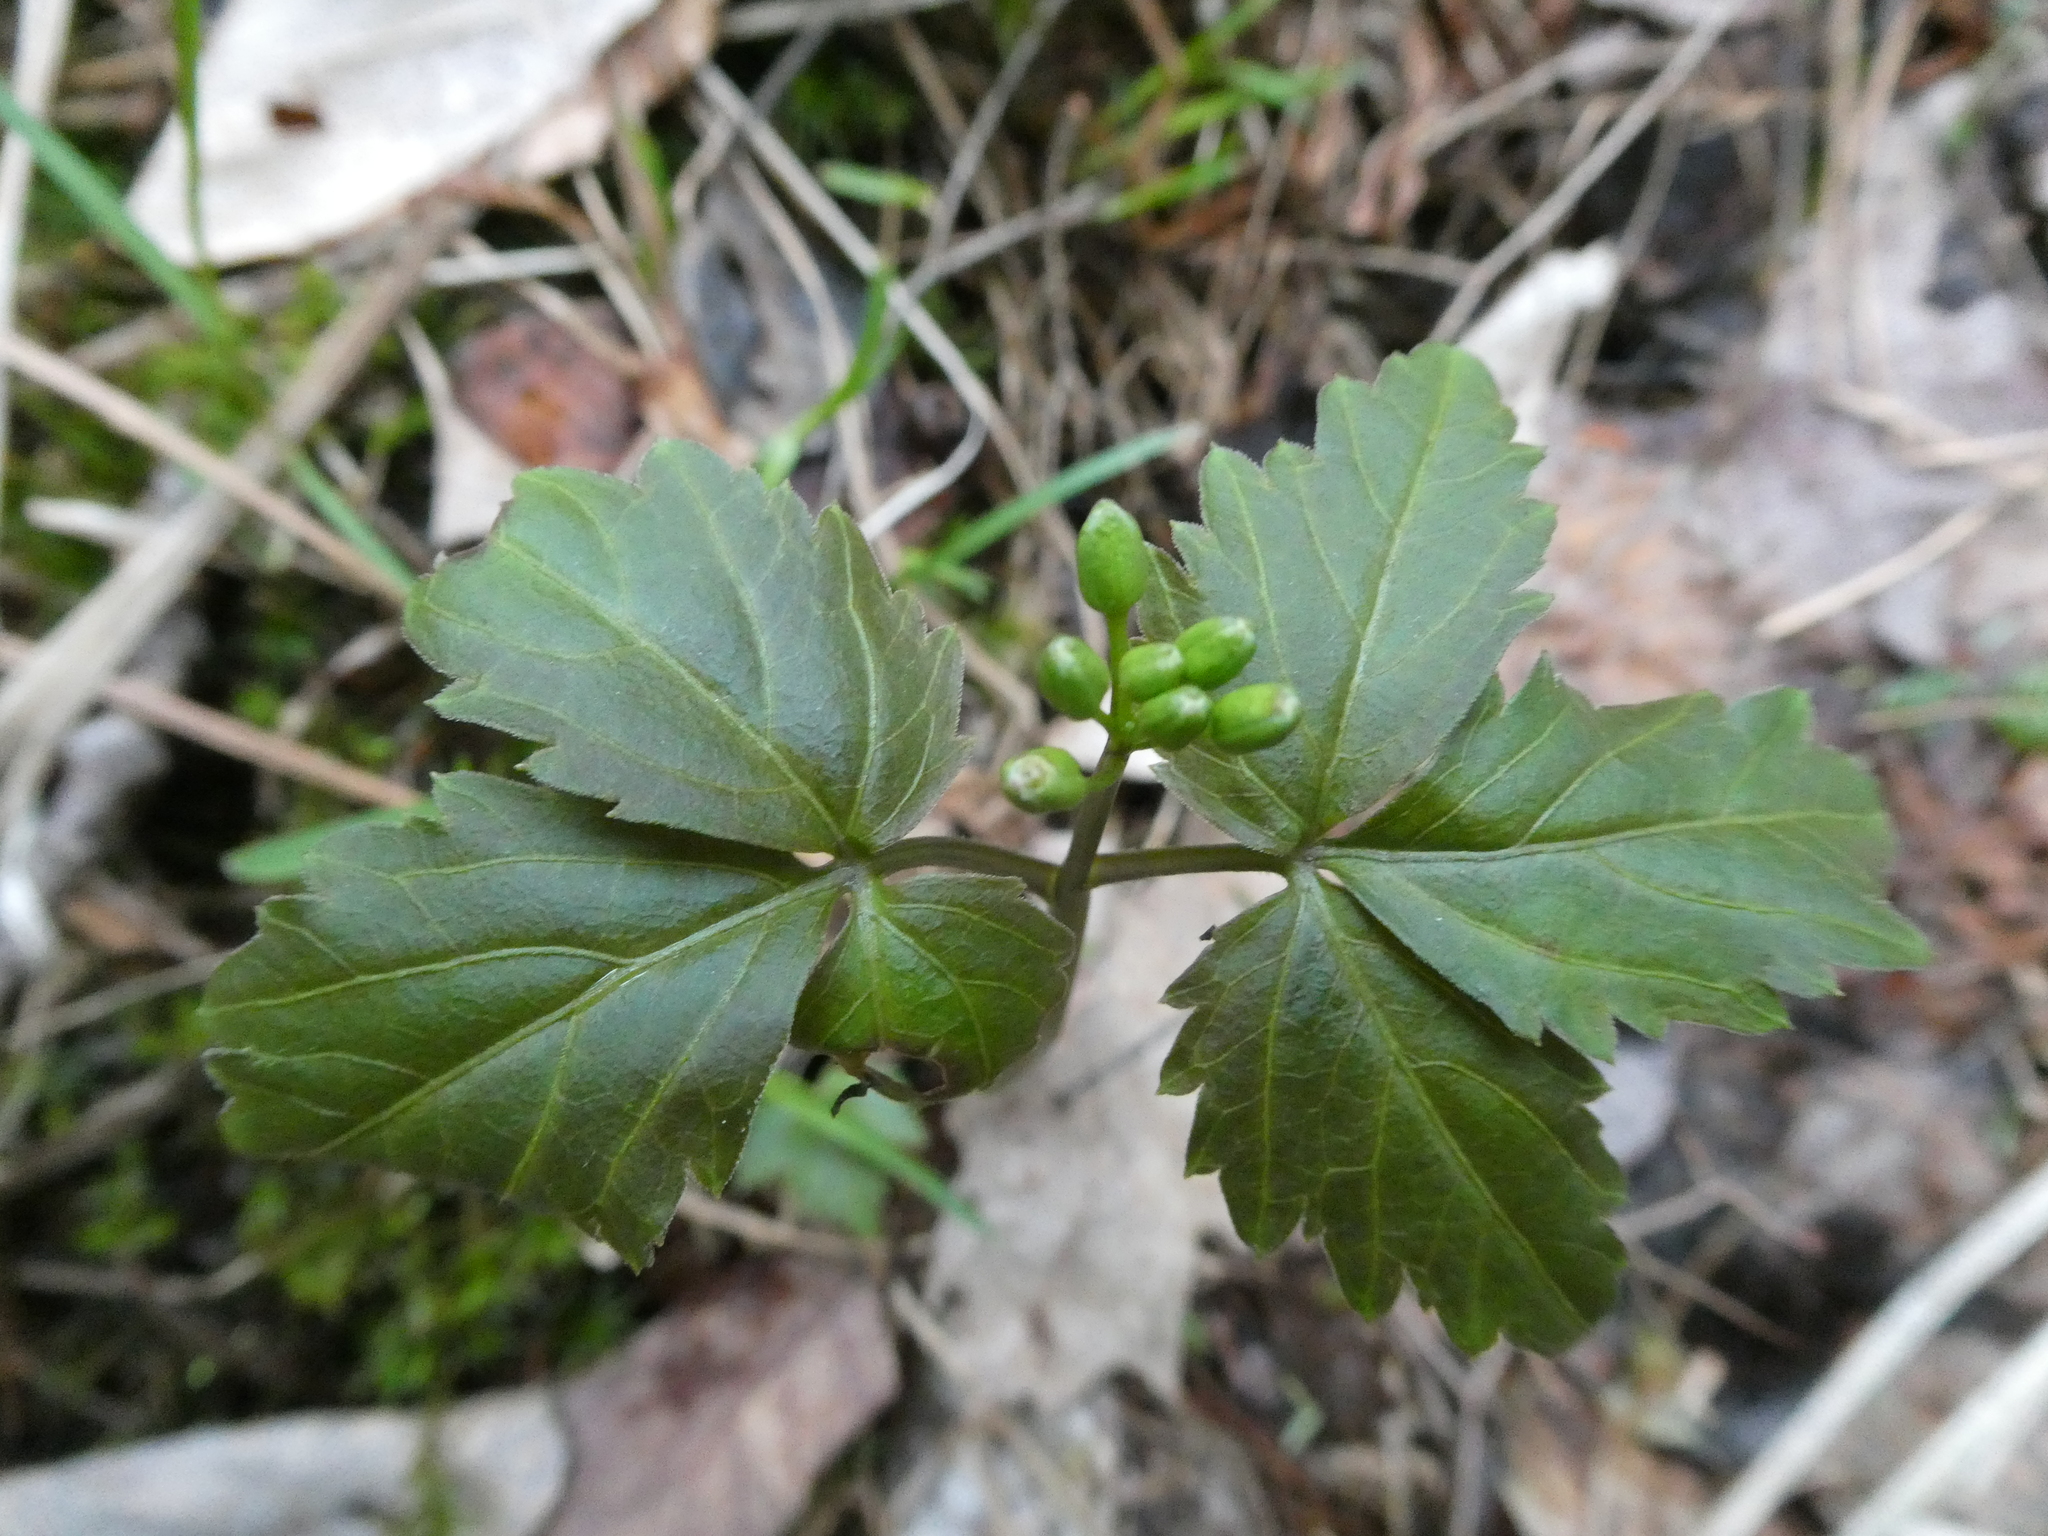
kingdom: Plantae
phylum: Tracheophyta
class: Magnoliopsida
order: Brassicales
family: Brassicaceae
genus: Cardamine
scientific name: Cardamine diphylla
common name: Broad-leaved toothwort
